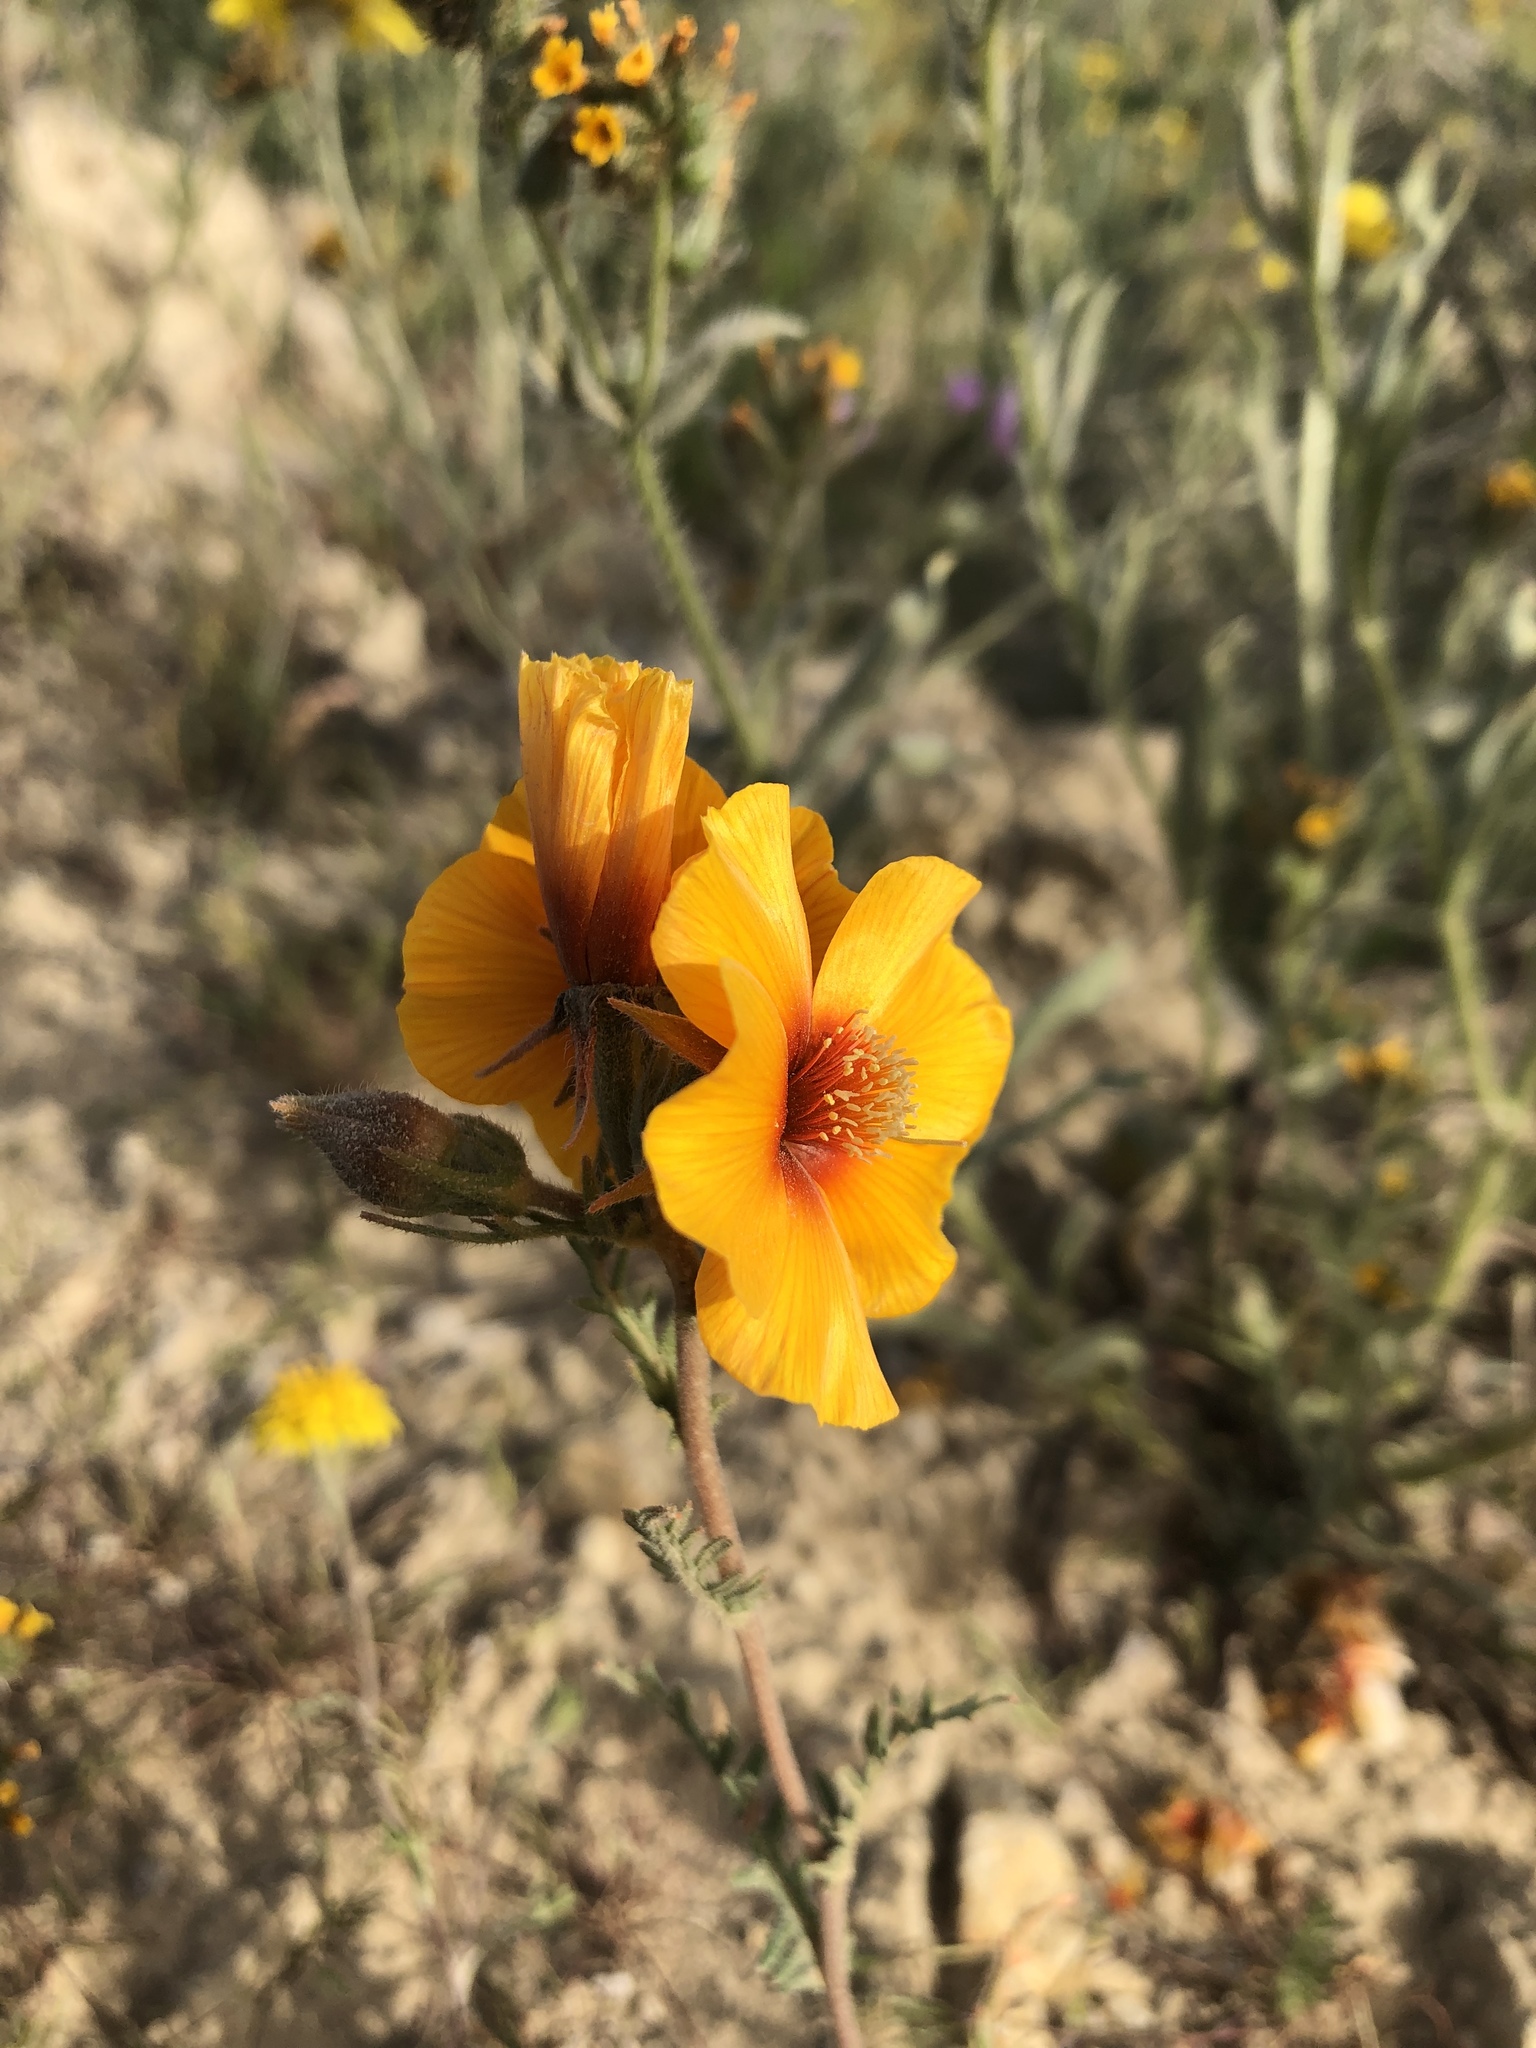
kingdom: Plantae
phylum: Tracheophyta
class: Magnoliopsida
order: Cornales
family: Loasaceae
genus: Mentzelia
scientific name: Mentzelia pectinata
